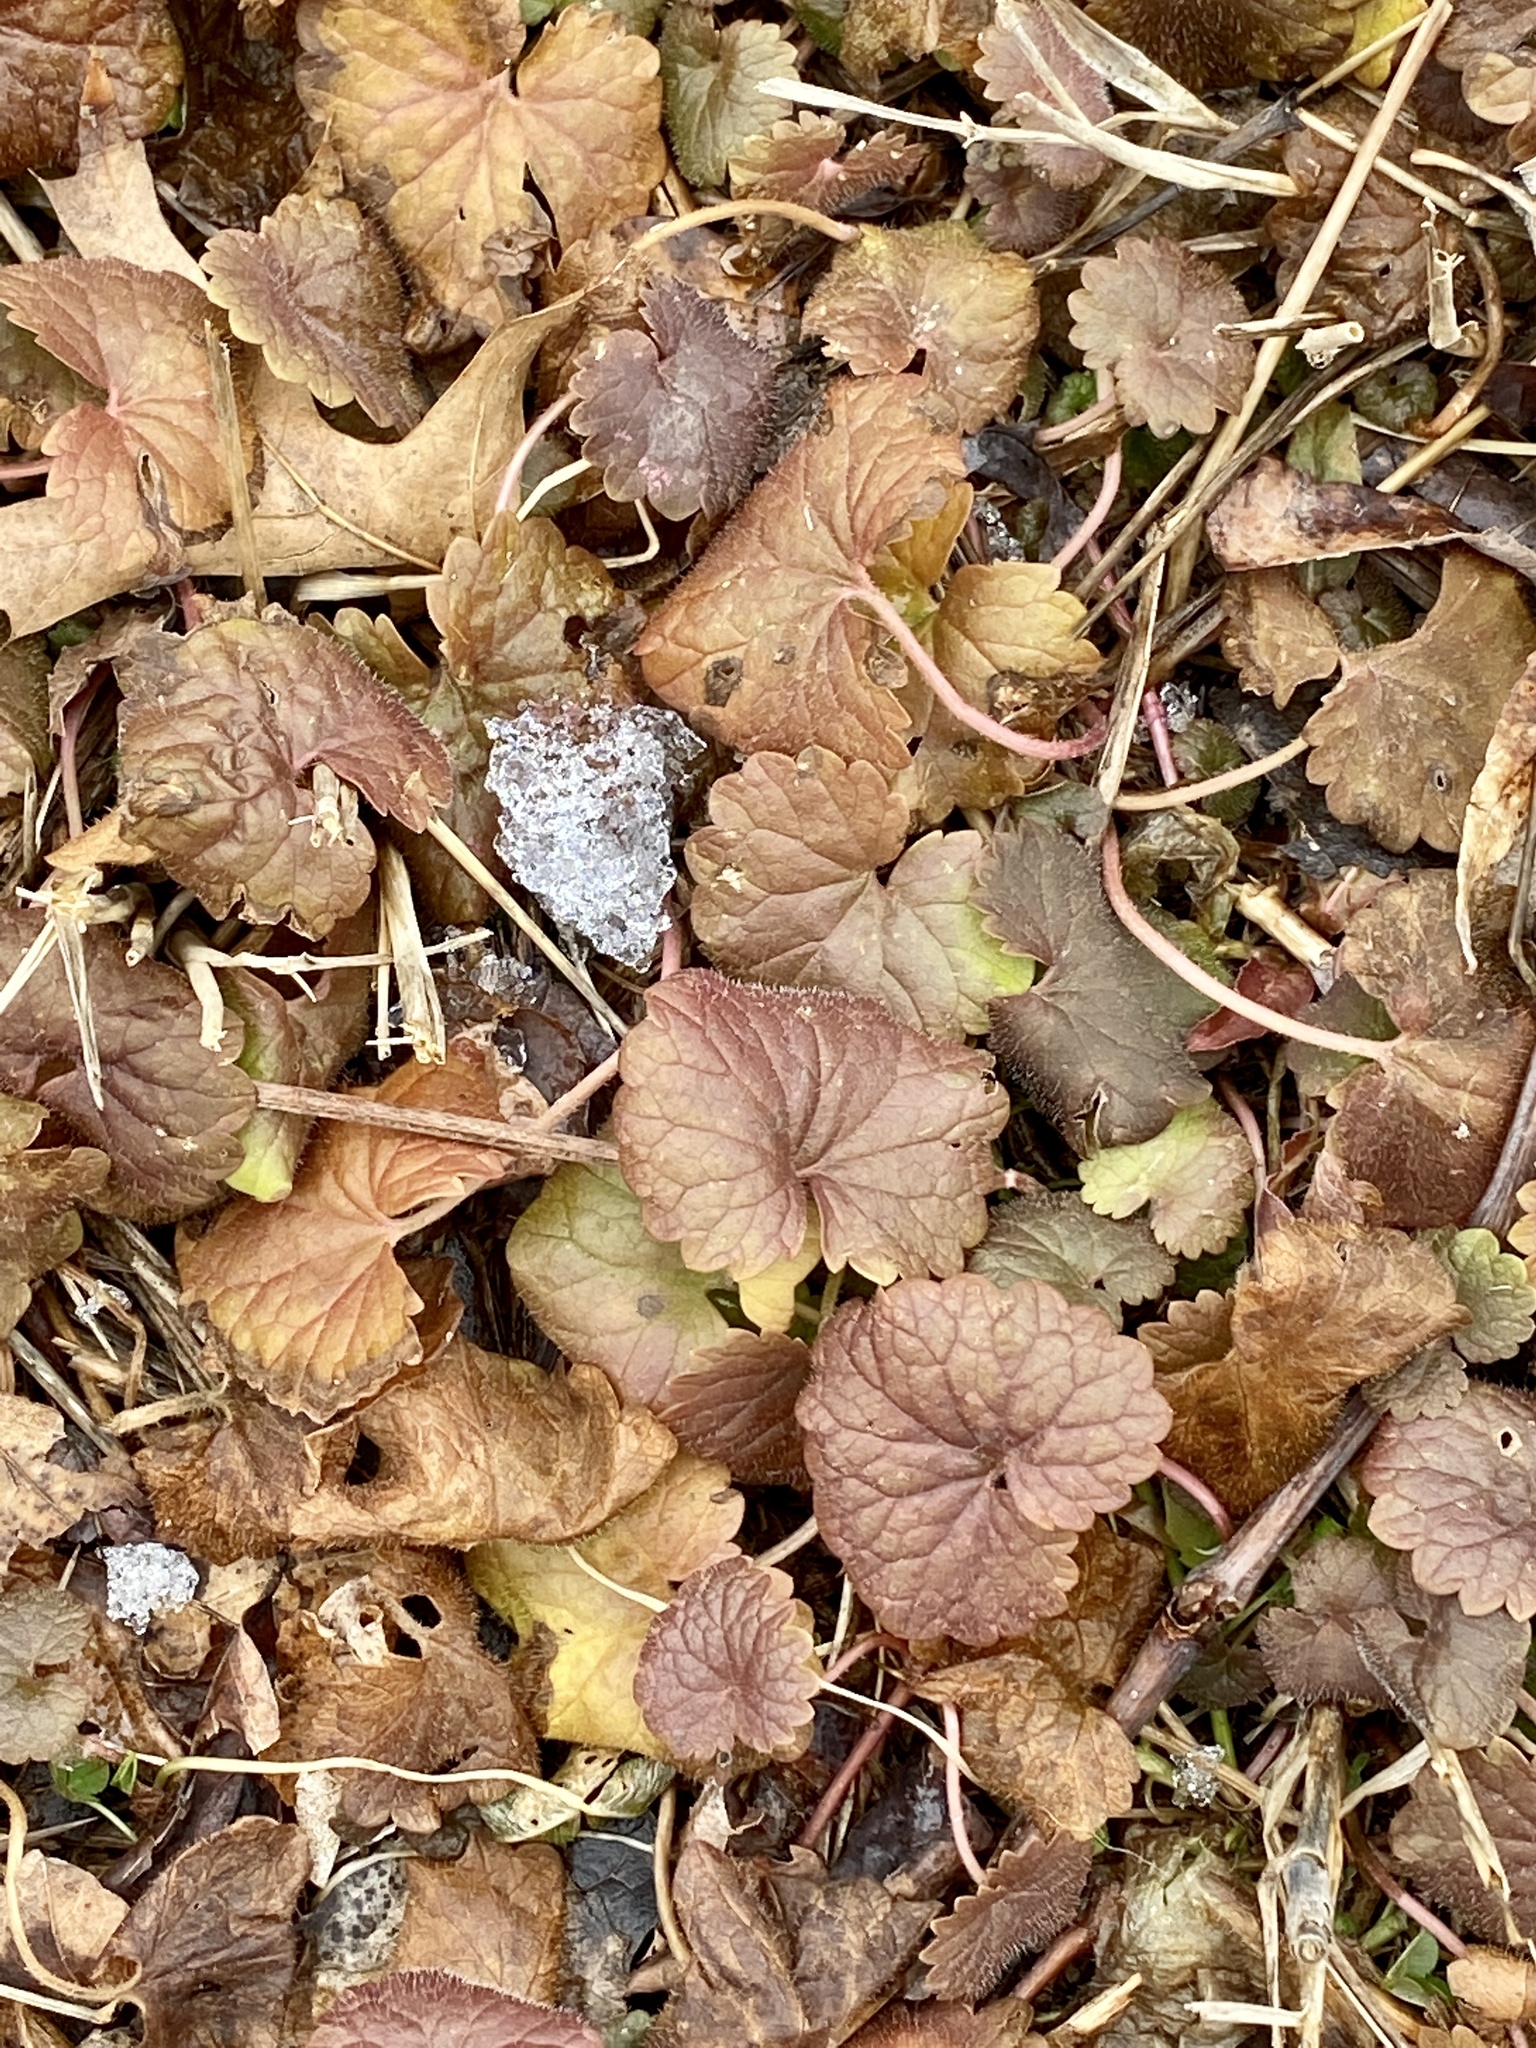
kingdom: Plantae
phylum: Tracheophyta
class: Magnoliopsida
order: Lamiales
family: Lamiaceae
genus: Glechoma
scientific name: Glechoma hederacea
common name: Ground ivy
